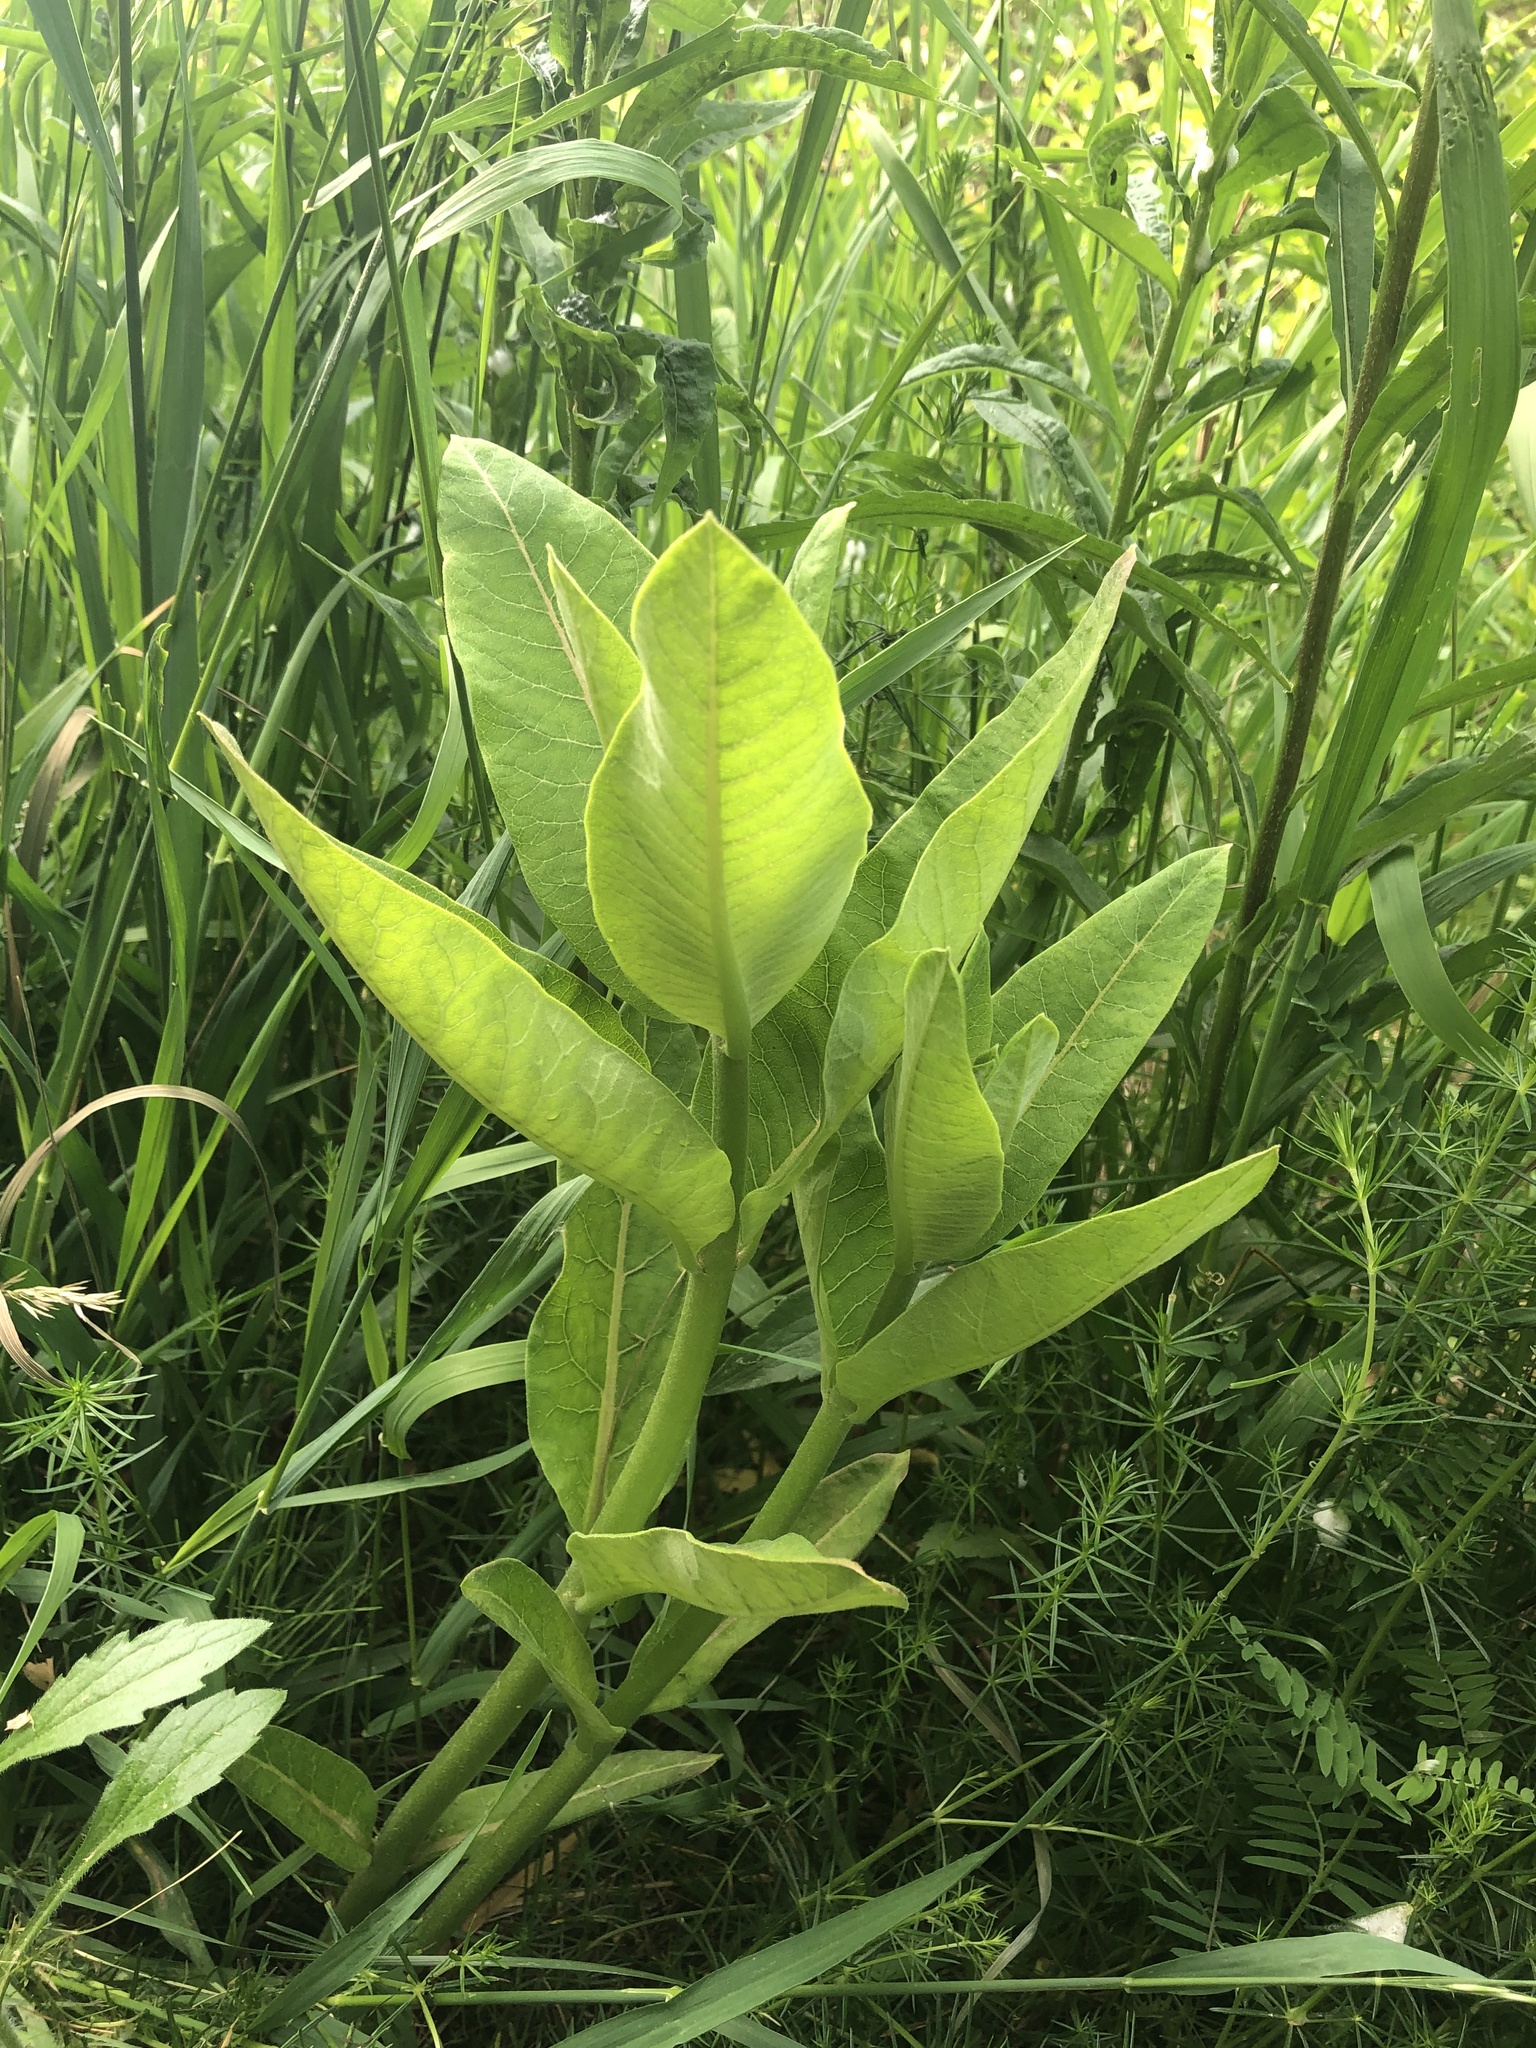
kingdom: Plantae
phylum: Tracheophyta
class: Magnoliopsida
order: Gentianales
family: Apocynaceae
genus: Asclepias
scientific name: Asclepias syriaca
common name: Common milkweed
